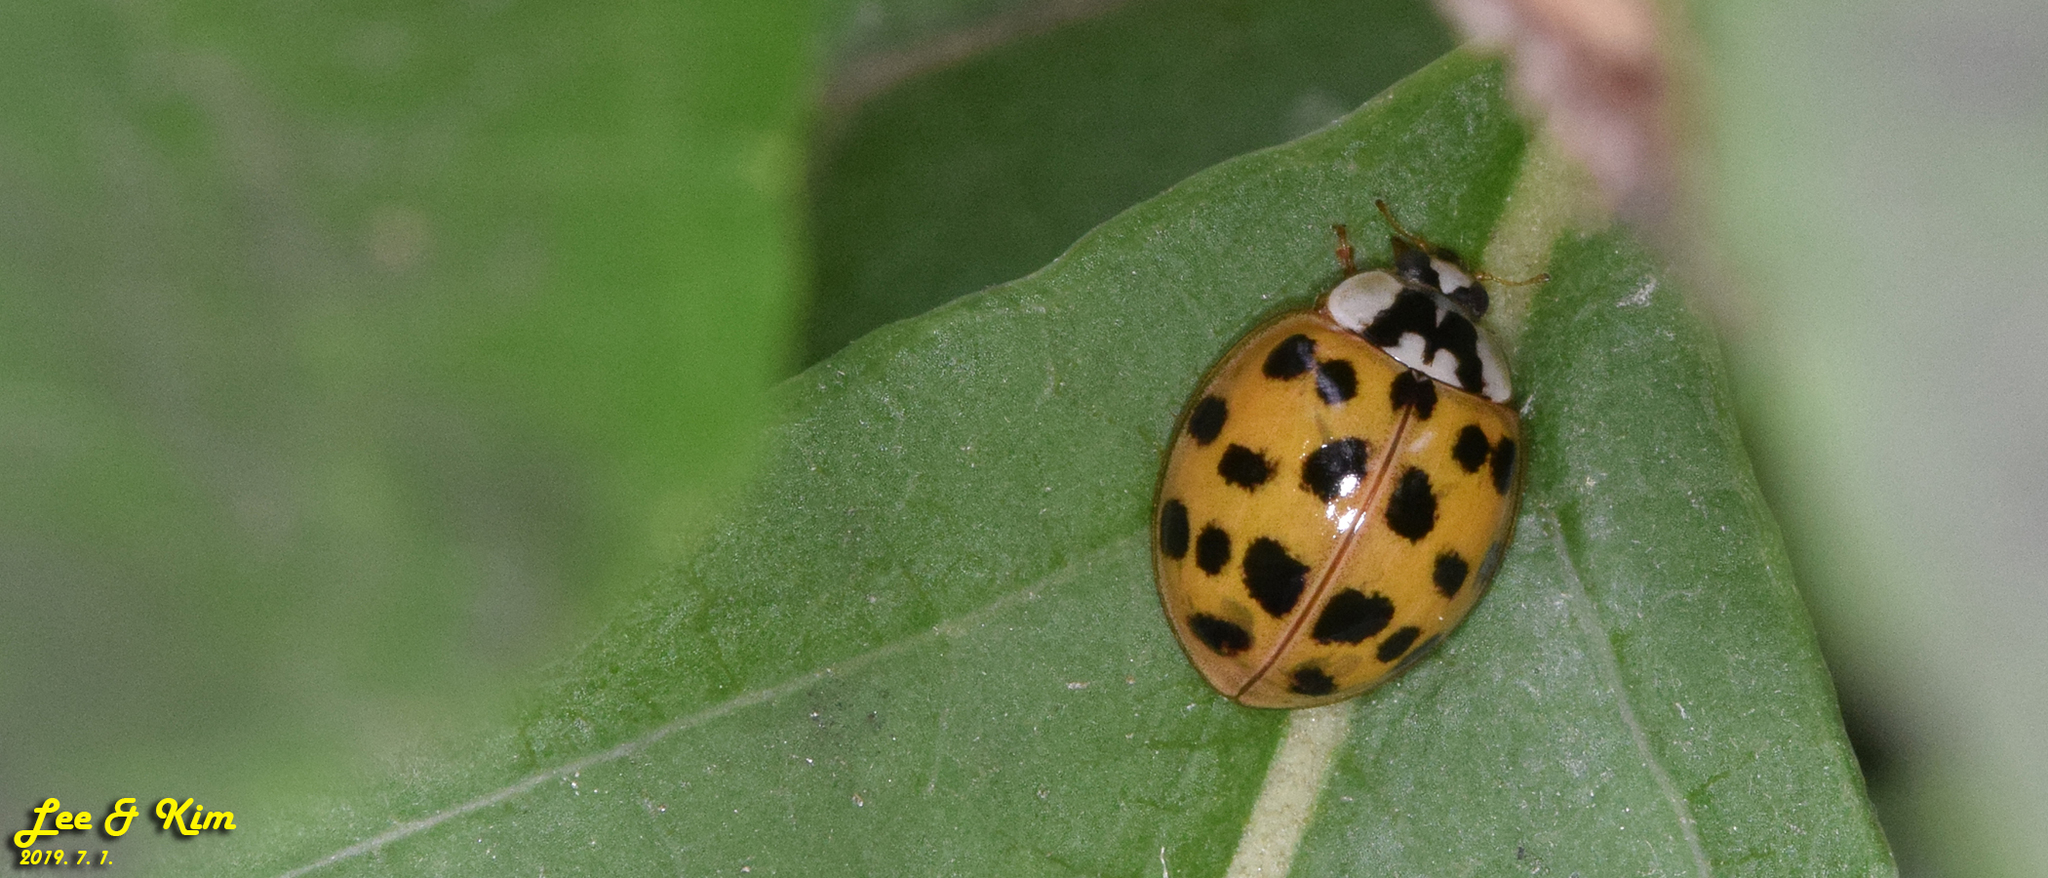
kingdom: Animalia
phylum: Arthropoda
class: Insecta
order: Coleoptera
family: Coccinellidae
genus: Harmonia
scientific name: Harmonia axyridis
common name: Harlequin ladybird
